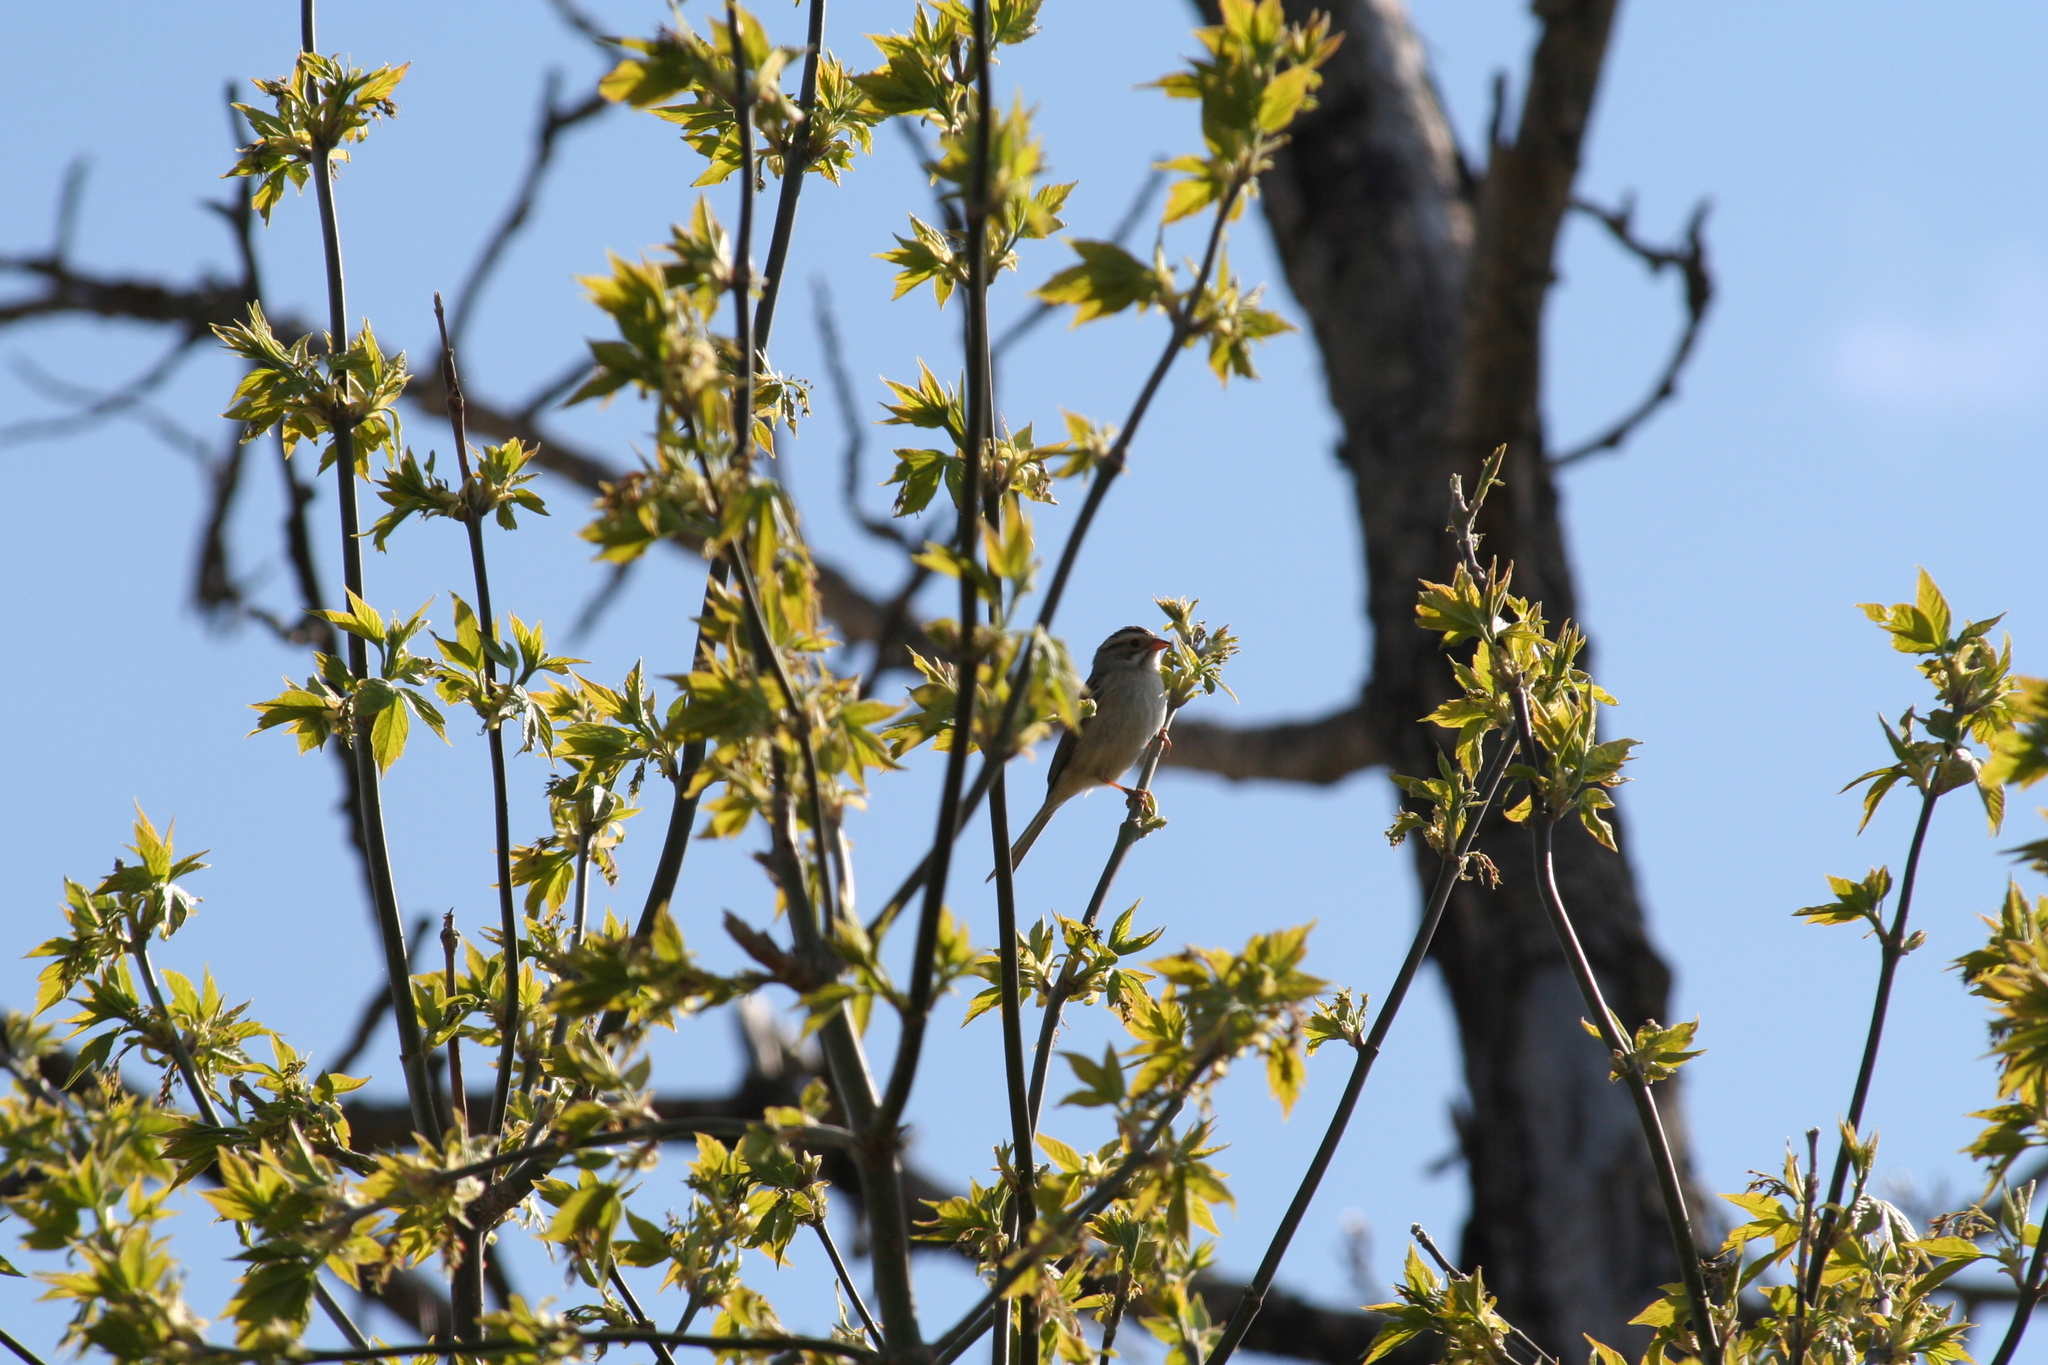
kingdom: Animalia
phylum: Chordata
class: Aves
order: Passeriformes
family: Passerellidae
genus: Spizella
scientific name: Spizella pallida
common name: Clay-colored sparrow
